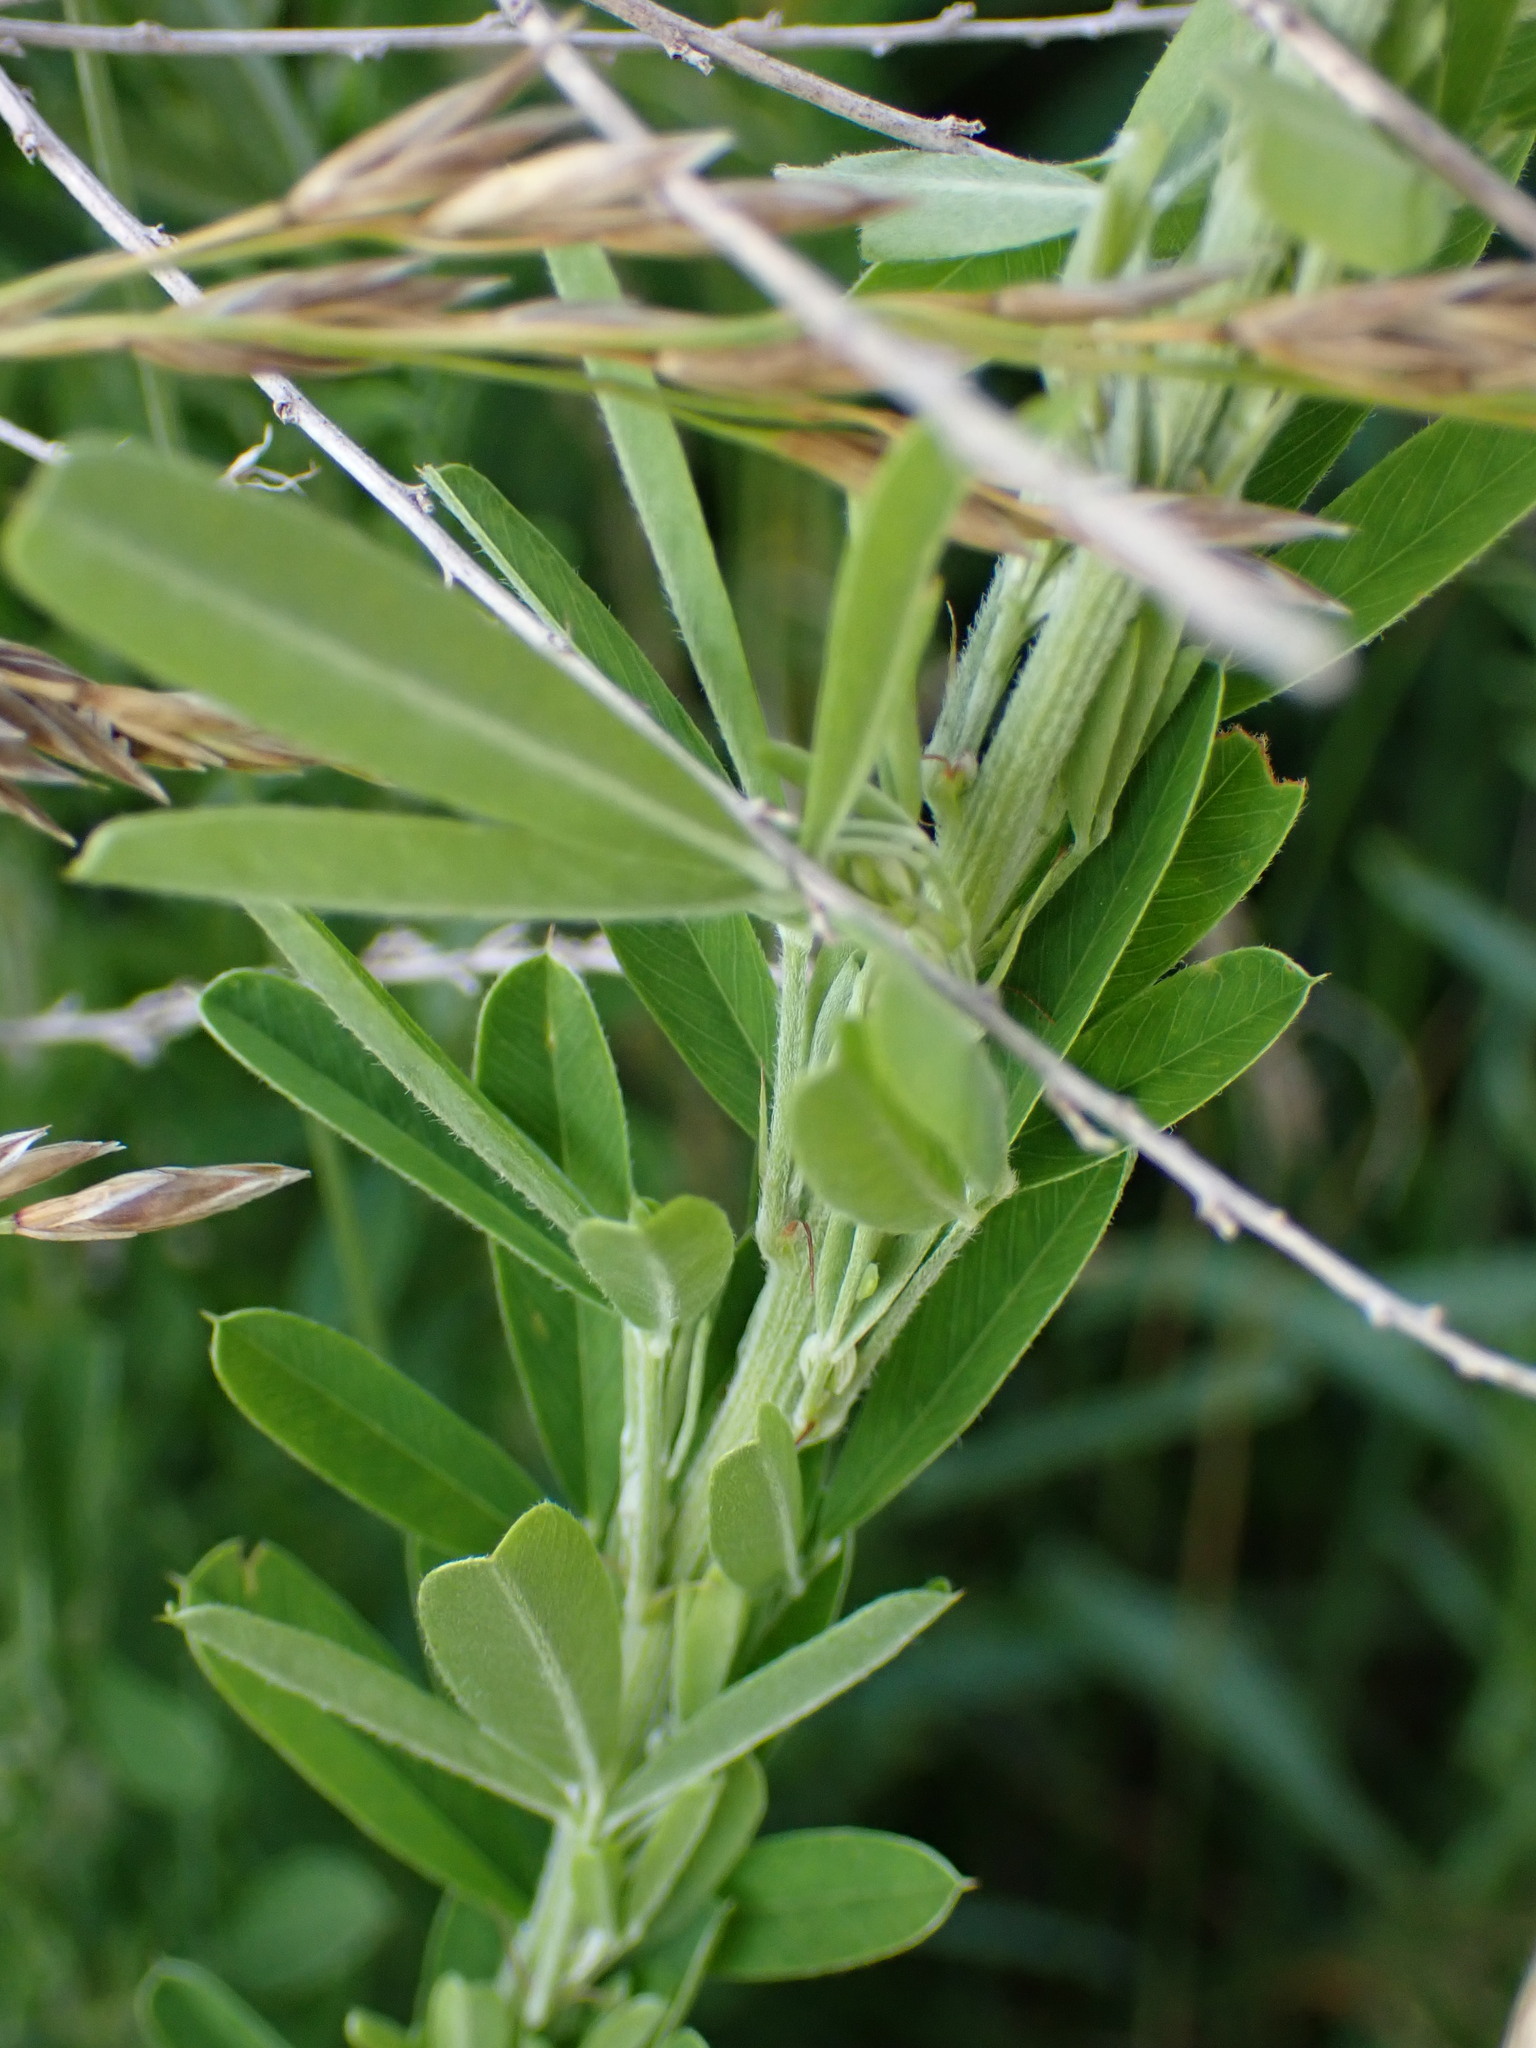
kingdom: Plantae
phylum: Tracheophyta
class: Magnoliopsida
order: Fabales
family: Fabaceae
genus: Lespedeza
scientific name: Lespedeza cuneata
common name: Chinese bush-clover
